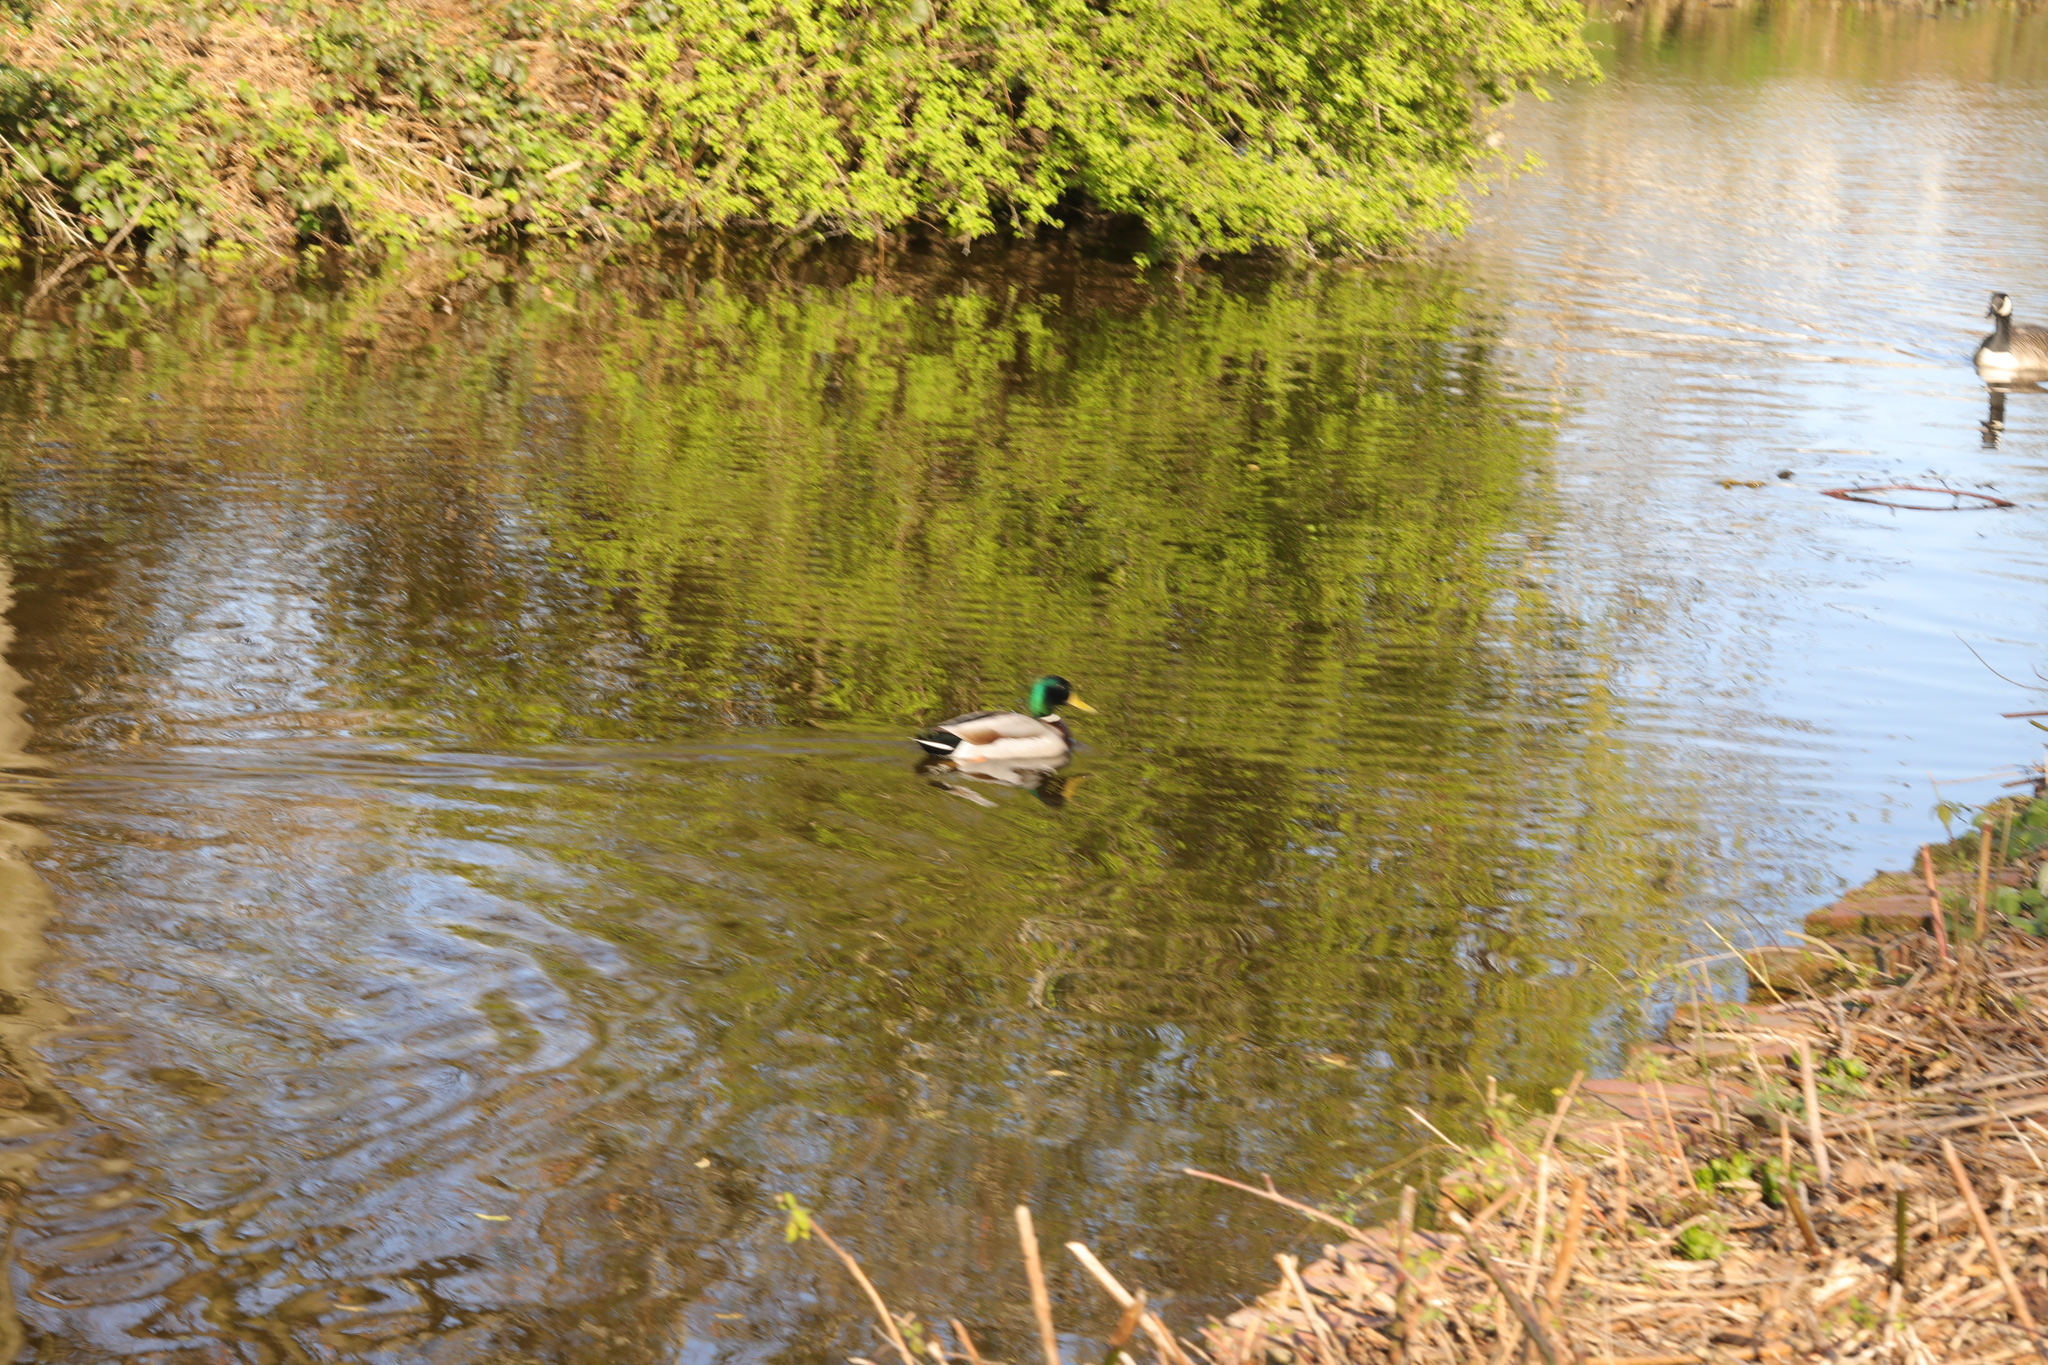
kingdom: Animalia
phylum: Chordata
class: Aves
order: Anseriformes
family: Anatidae
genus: Anas
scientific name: Anas platyrhynchos
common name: Mallard
